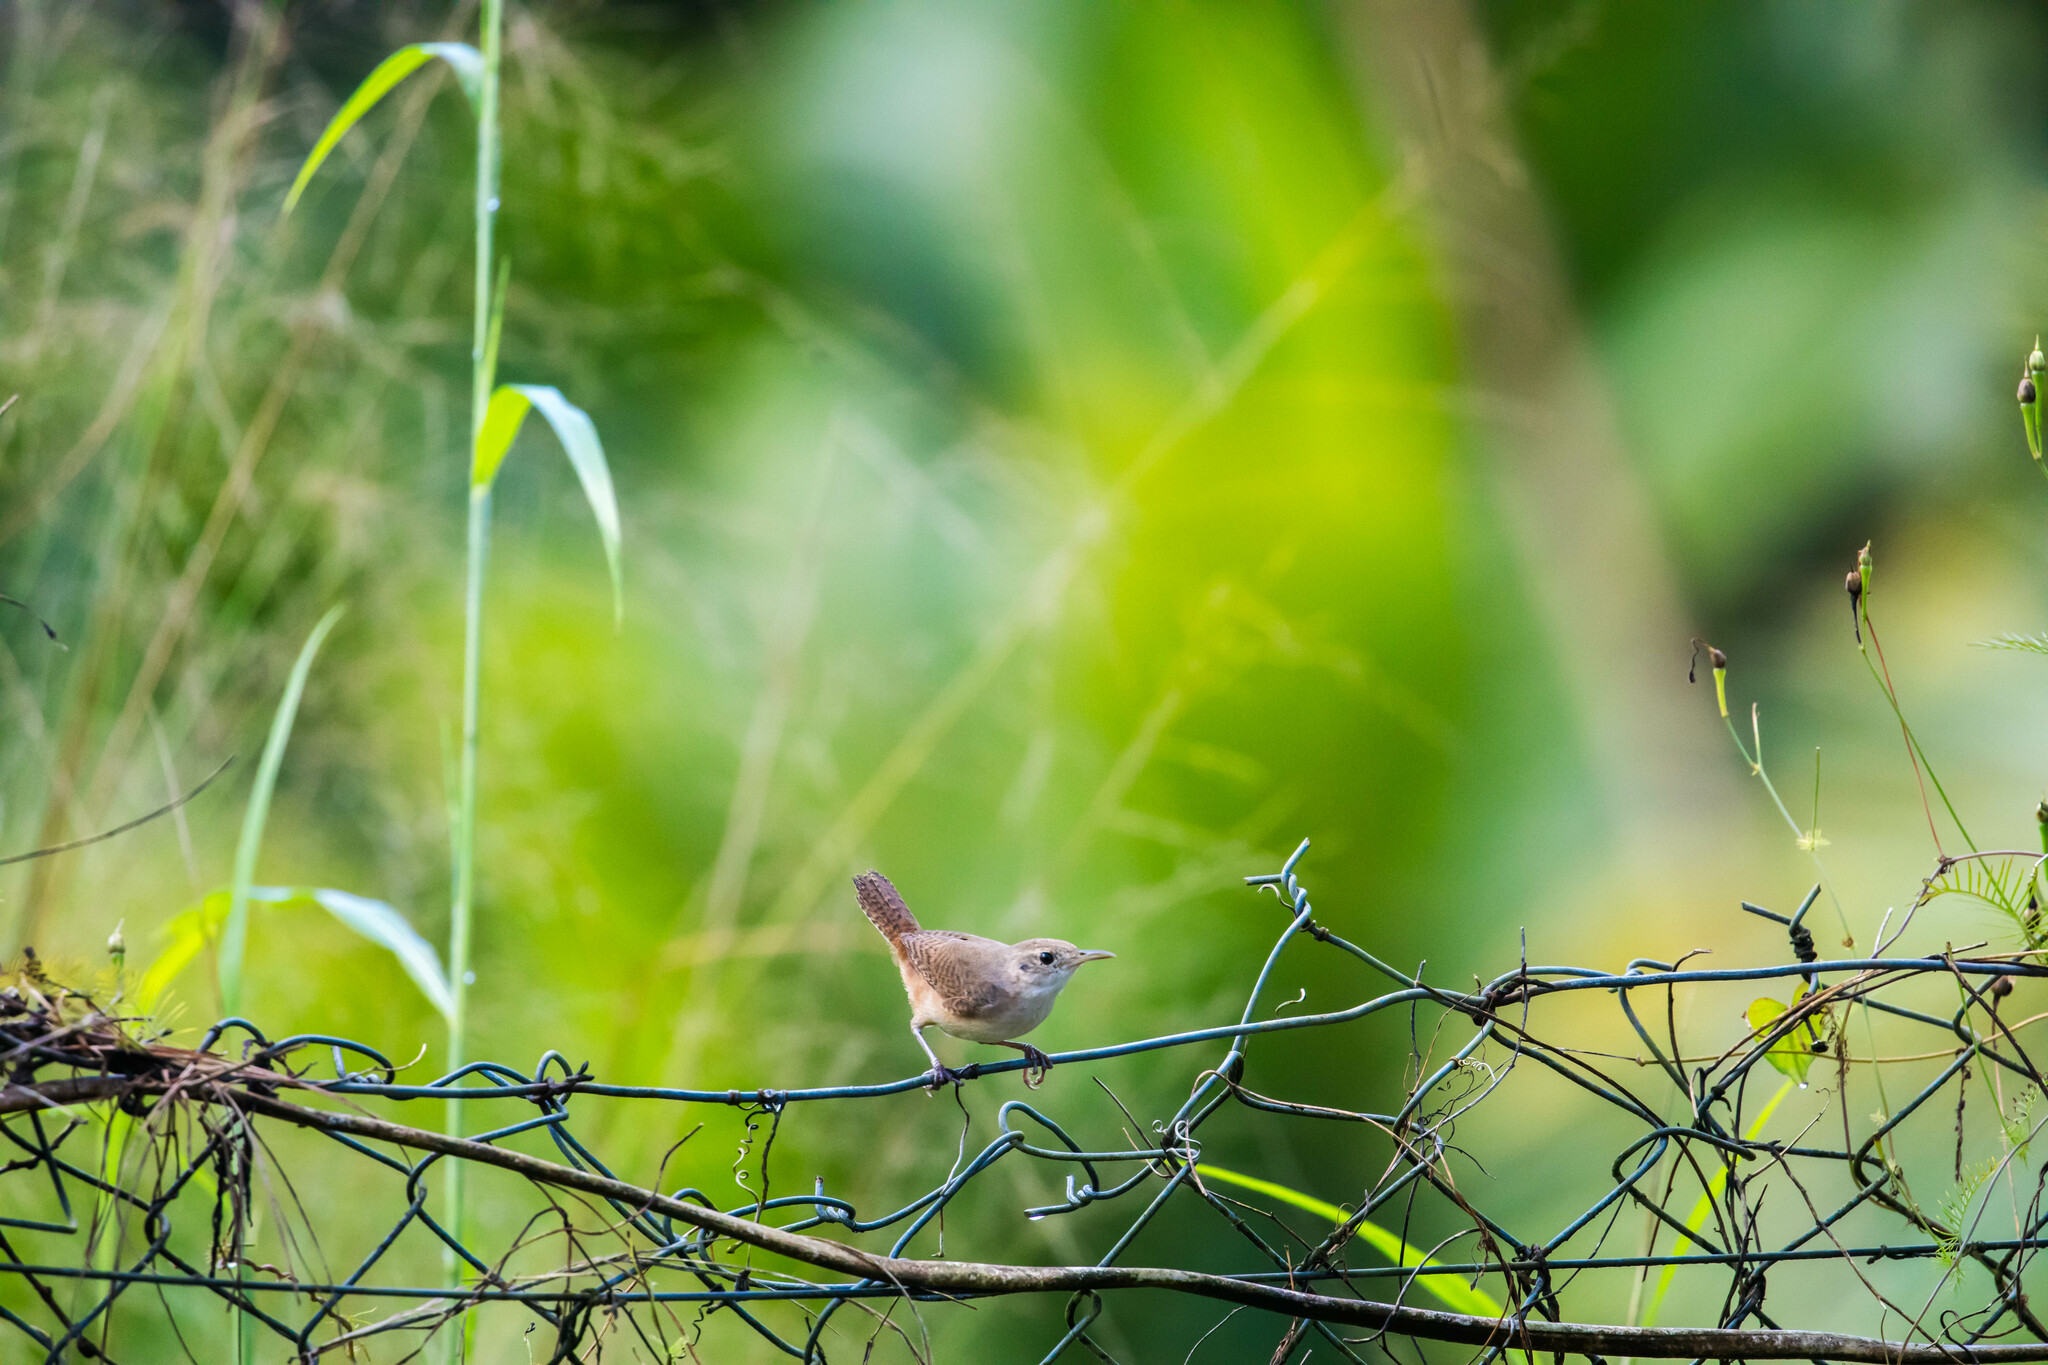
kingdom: Animalia
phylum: Chordata
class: Aves
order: Passeriformes
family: Troglodytidae
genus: Troglodytes
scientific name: Troglodytes aedon
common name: House wren
